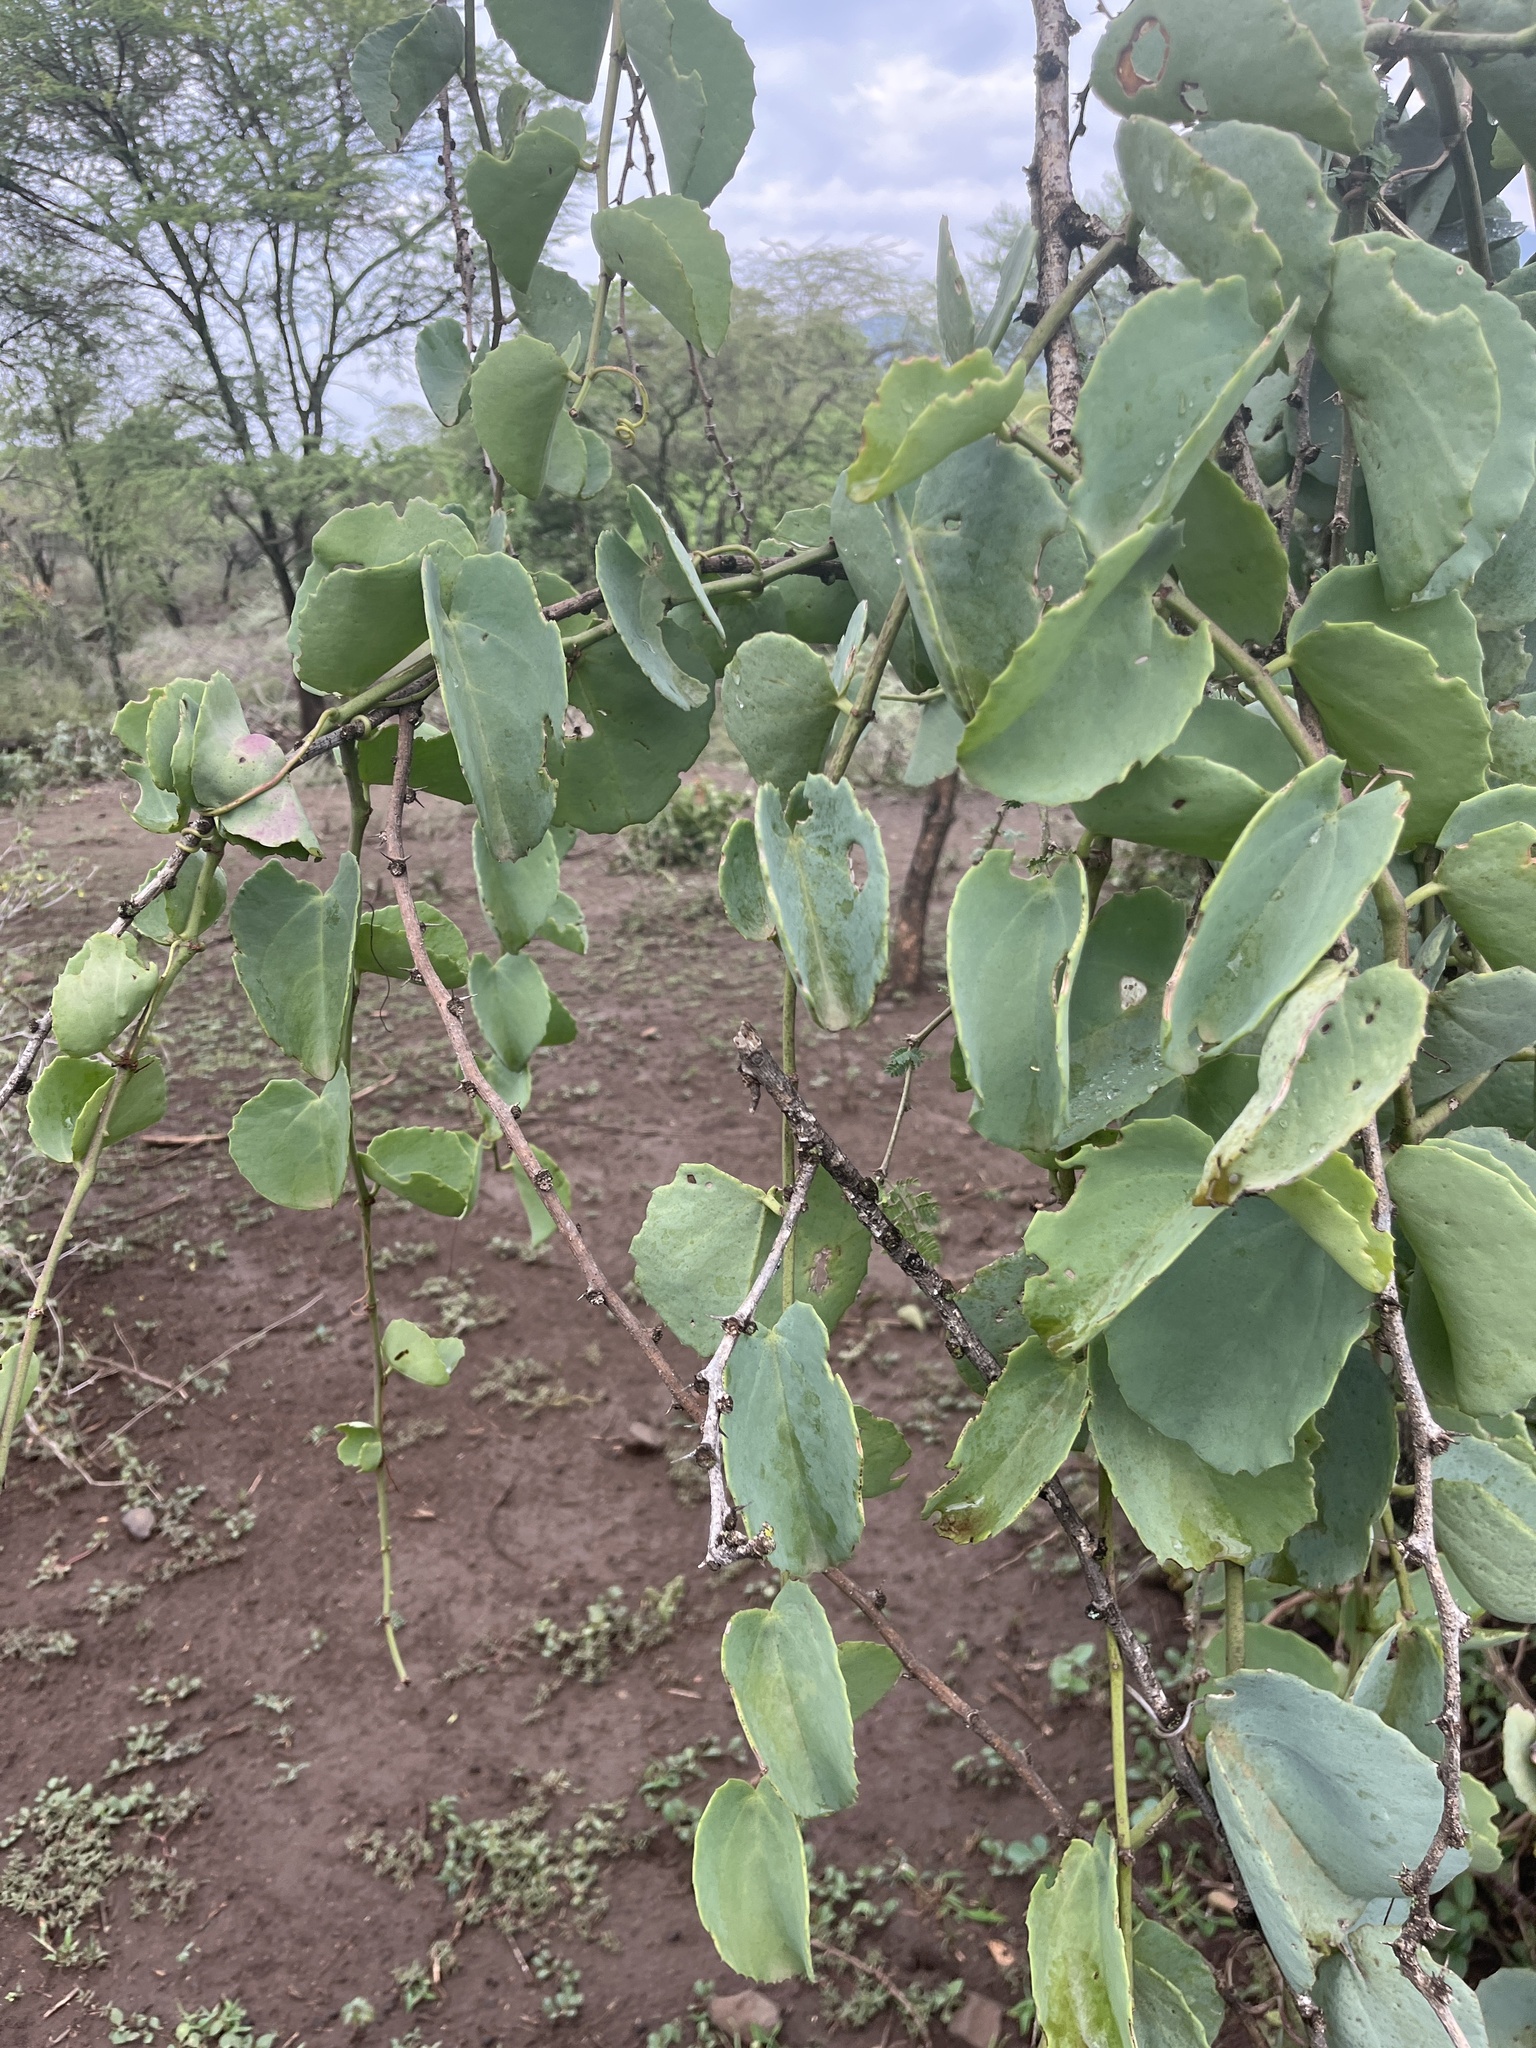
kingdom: Plantae
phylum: Tracheophyta
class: Magnoliopsida
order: Vitales
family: Vitaceae
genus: Cissus
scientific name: Cissus rotundifolia
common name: Arabian wax cissus
